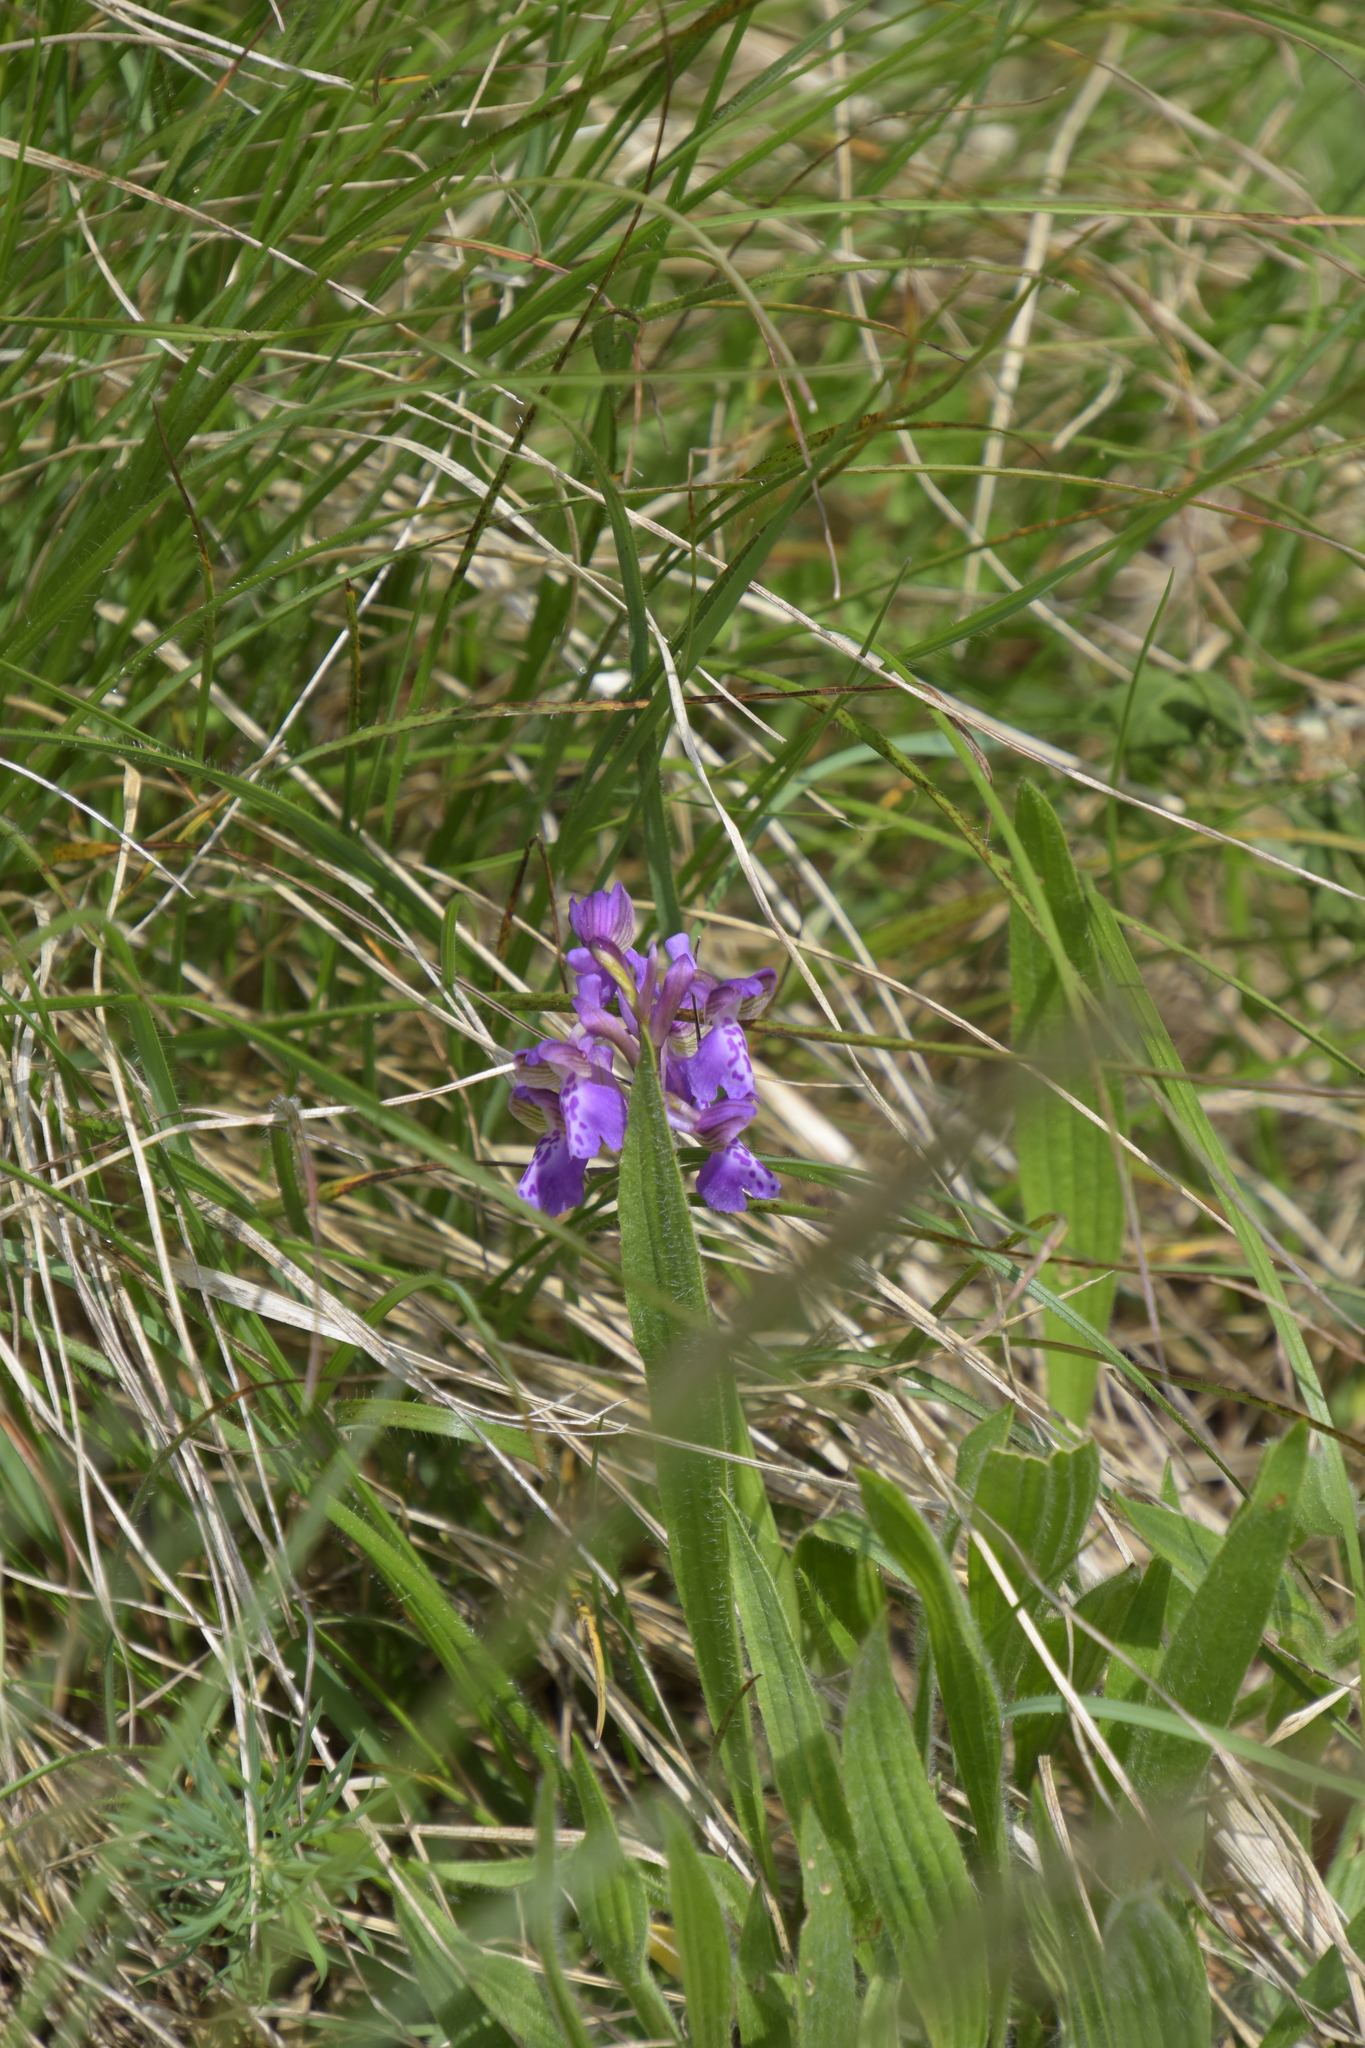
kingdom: Plantae
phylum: Tracheophyta
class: Liliopsida
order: Asparagales
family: Orchidaceae
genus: Anacamptis
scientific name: Anacamptis morio
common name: Green-winged orchid
